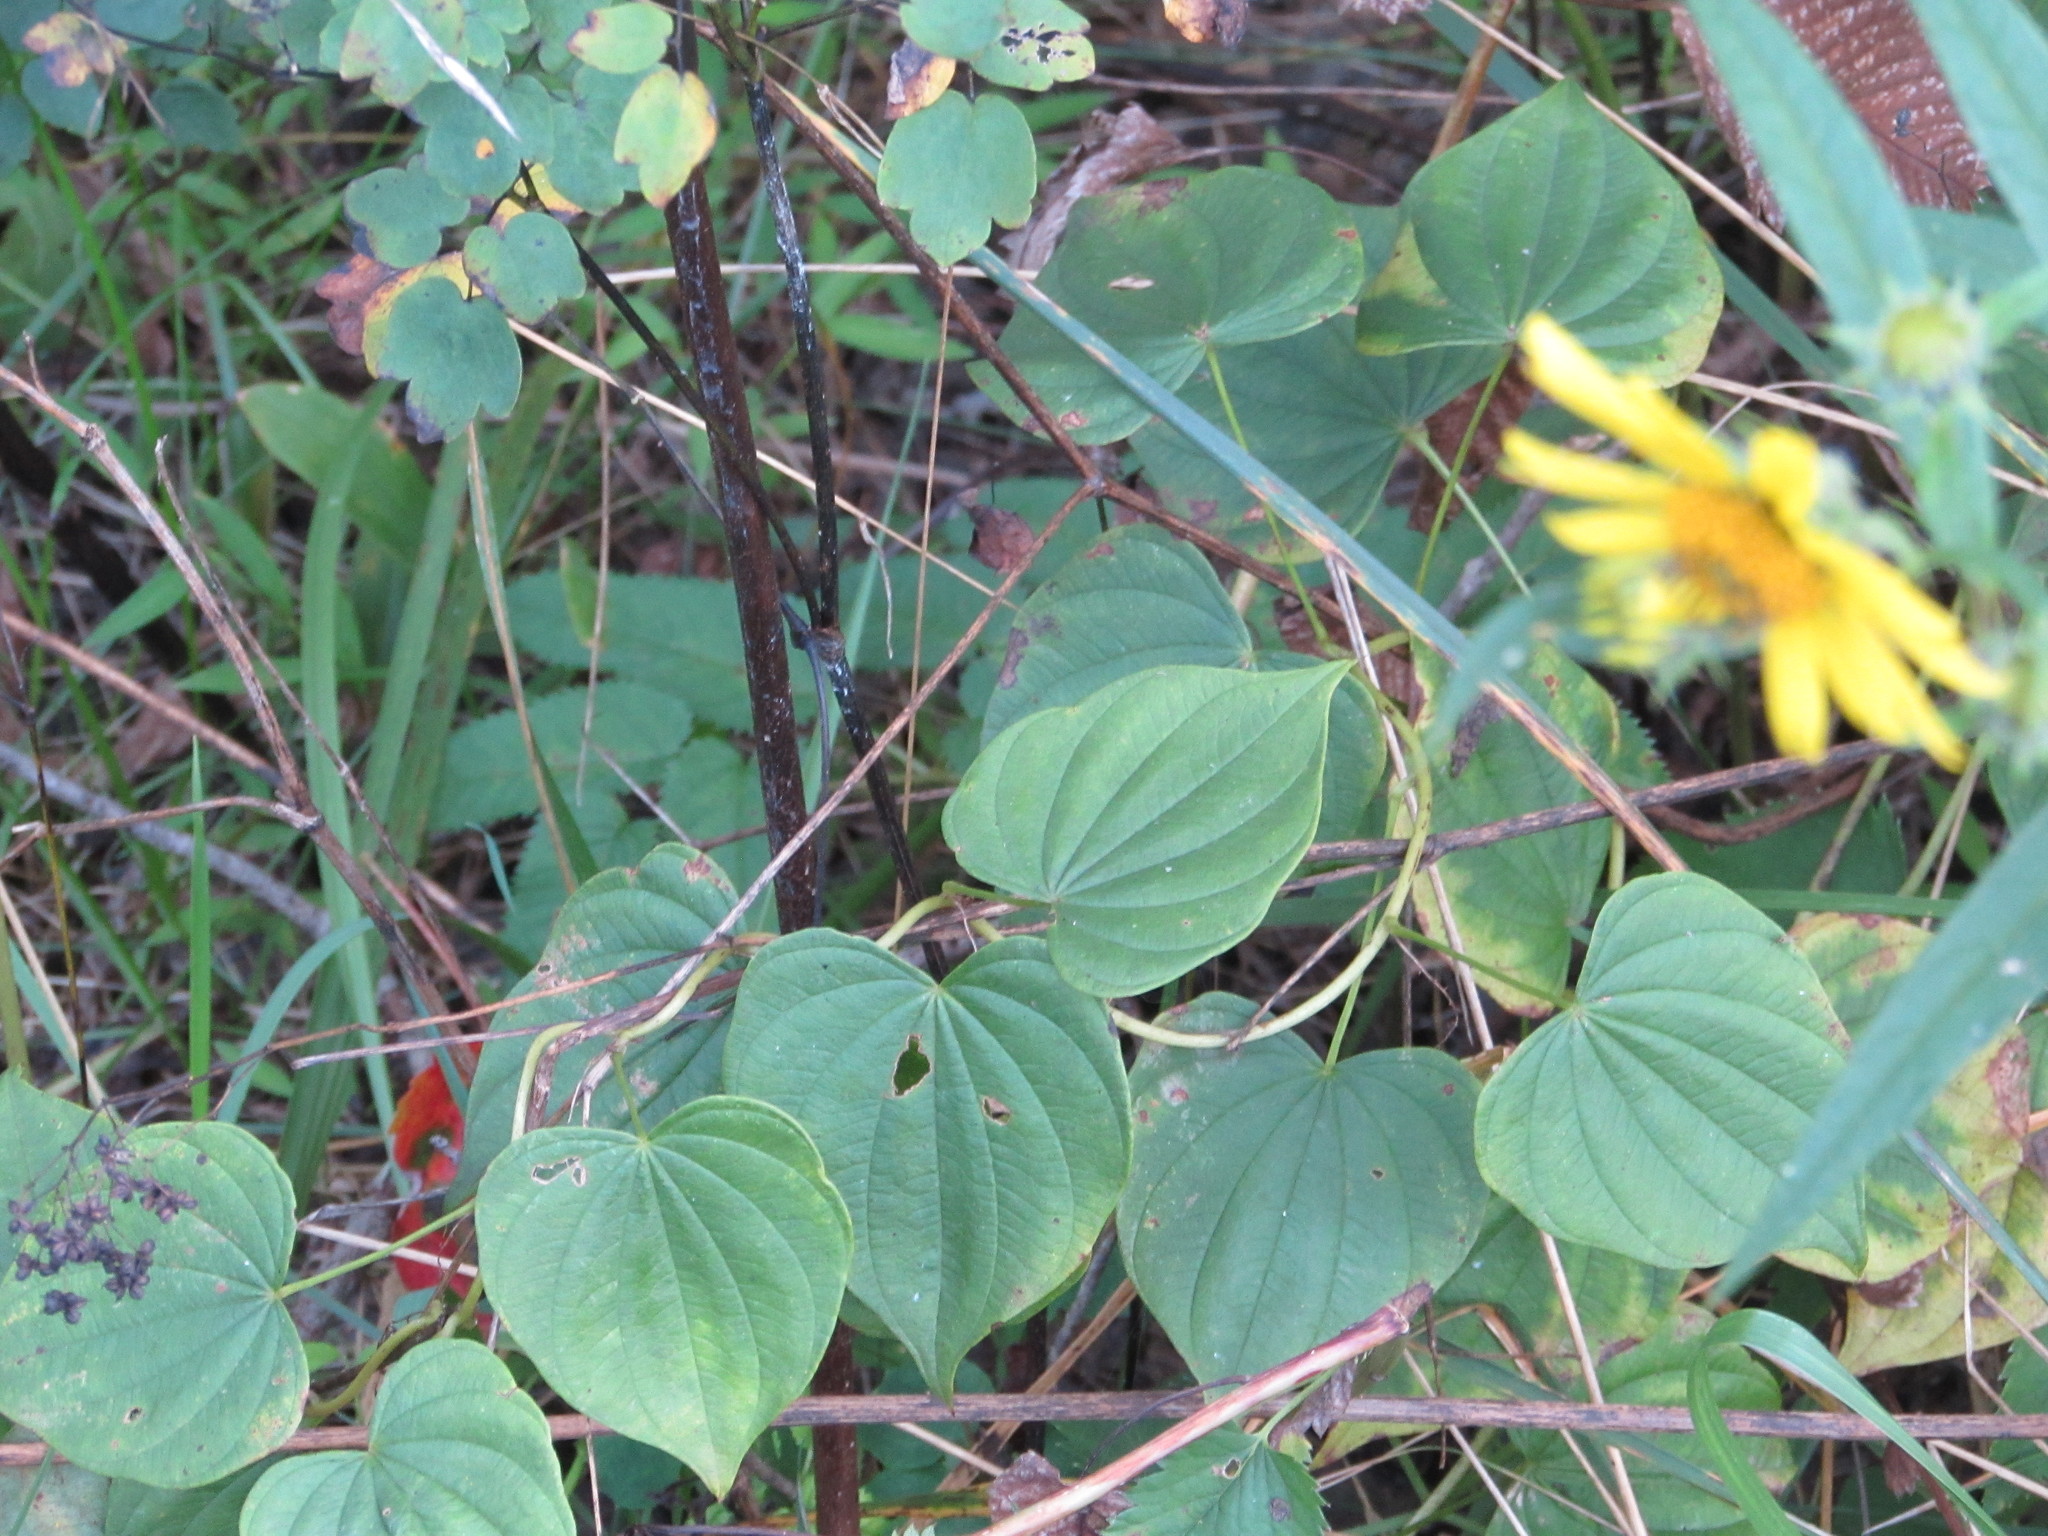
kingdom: Plantae
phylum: Tracheophyta
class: Liliopsida
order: Dioscoreales
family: Dioscoreaceae
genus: Dioscorea
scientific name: Dioscorea villosa
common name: Wild yam
